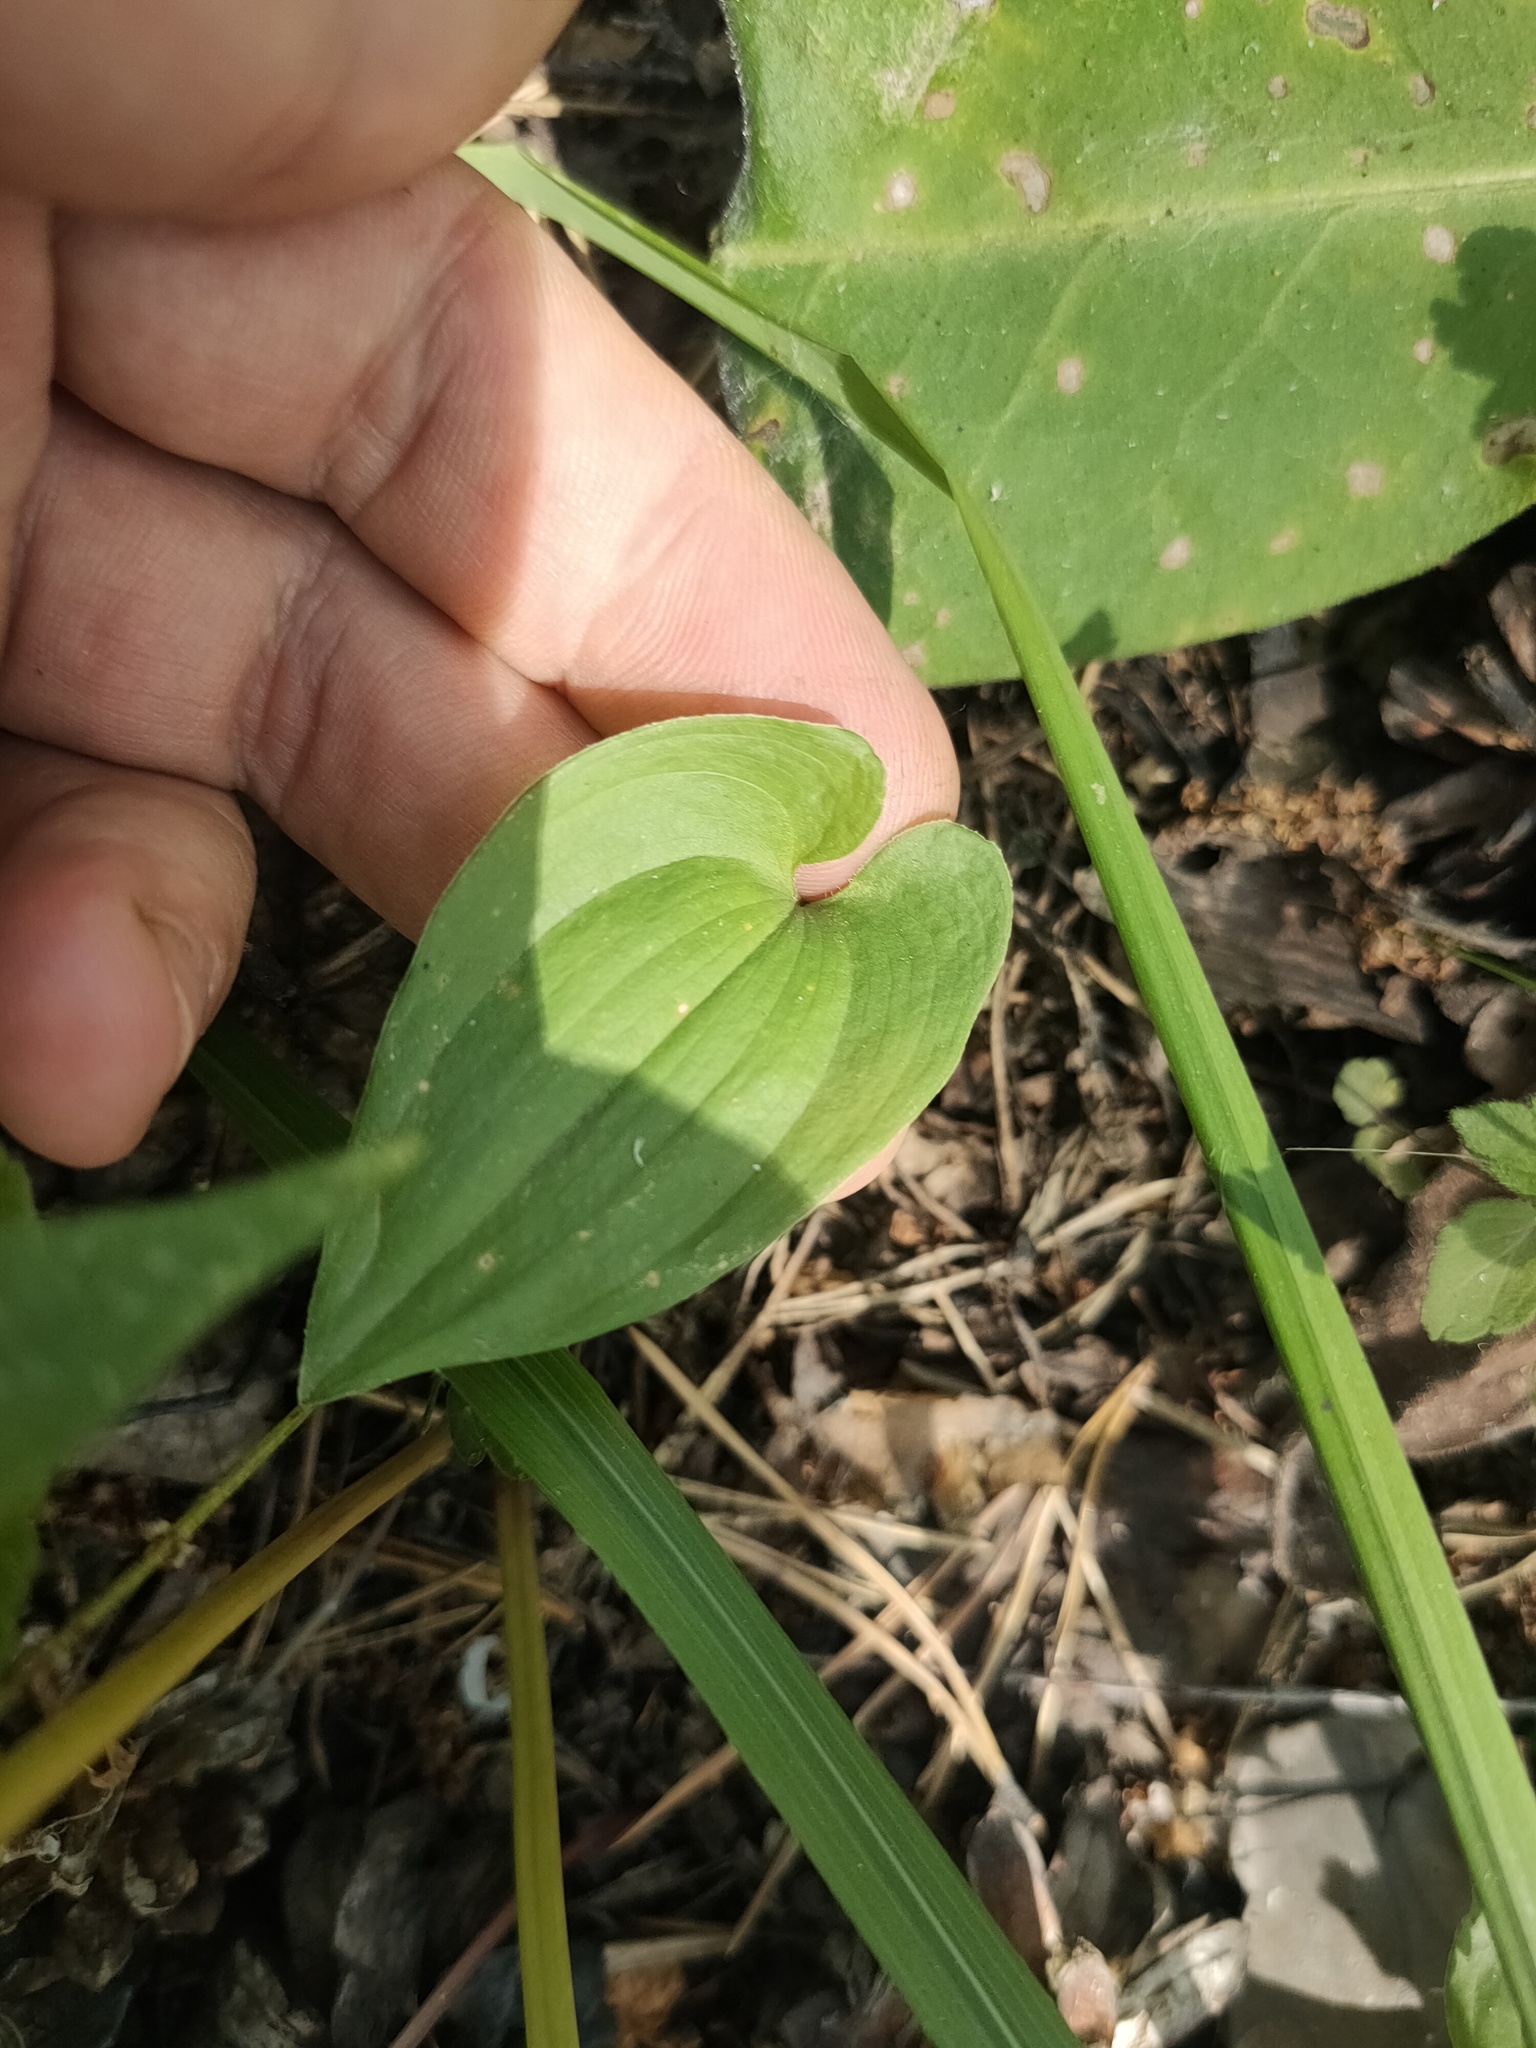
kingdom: Plantae
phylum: Tracheophyta
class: Liliopsida
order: Asparagales
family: Asparagaceae
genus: Maianthemum
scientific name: Maianthemum bifolium
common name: May lily
